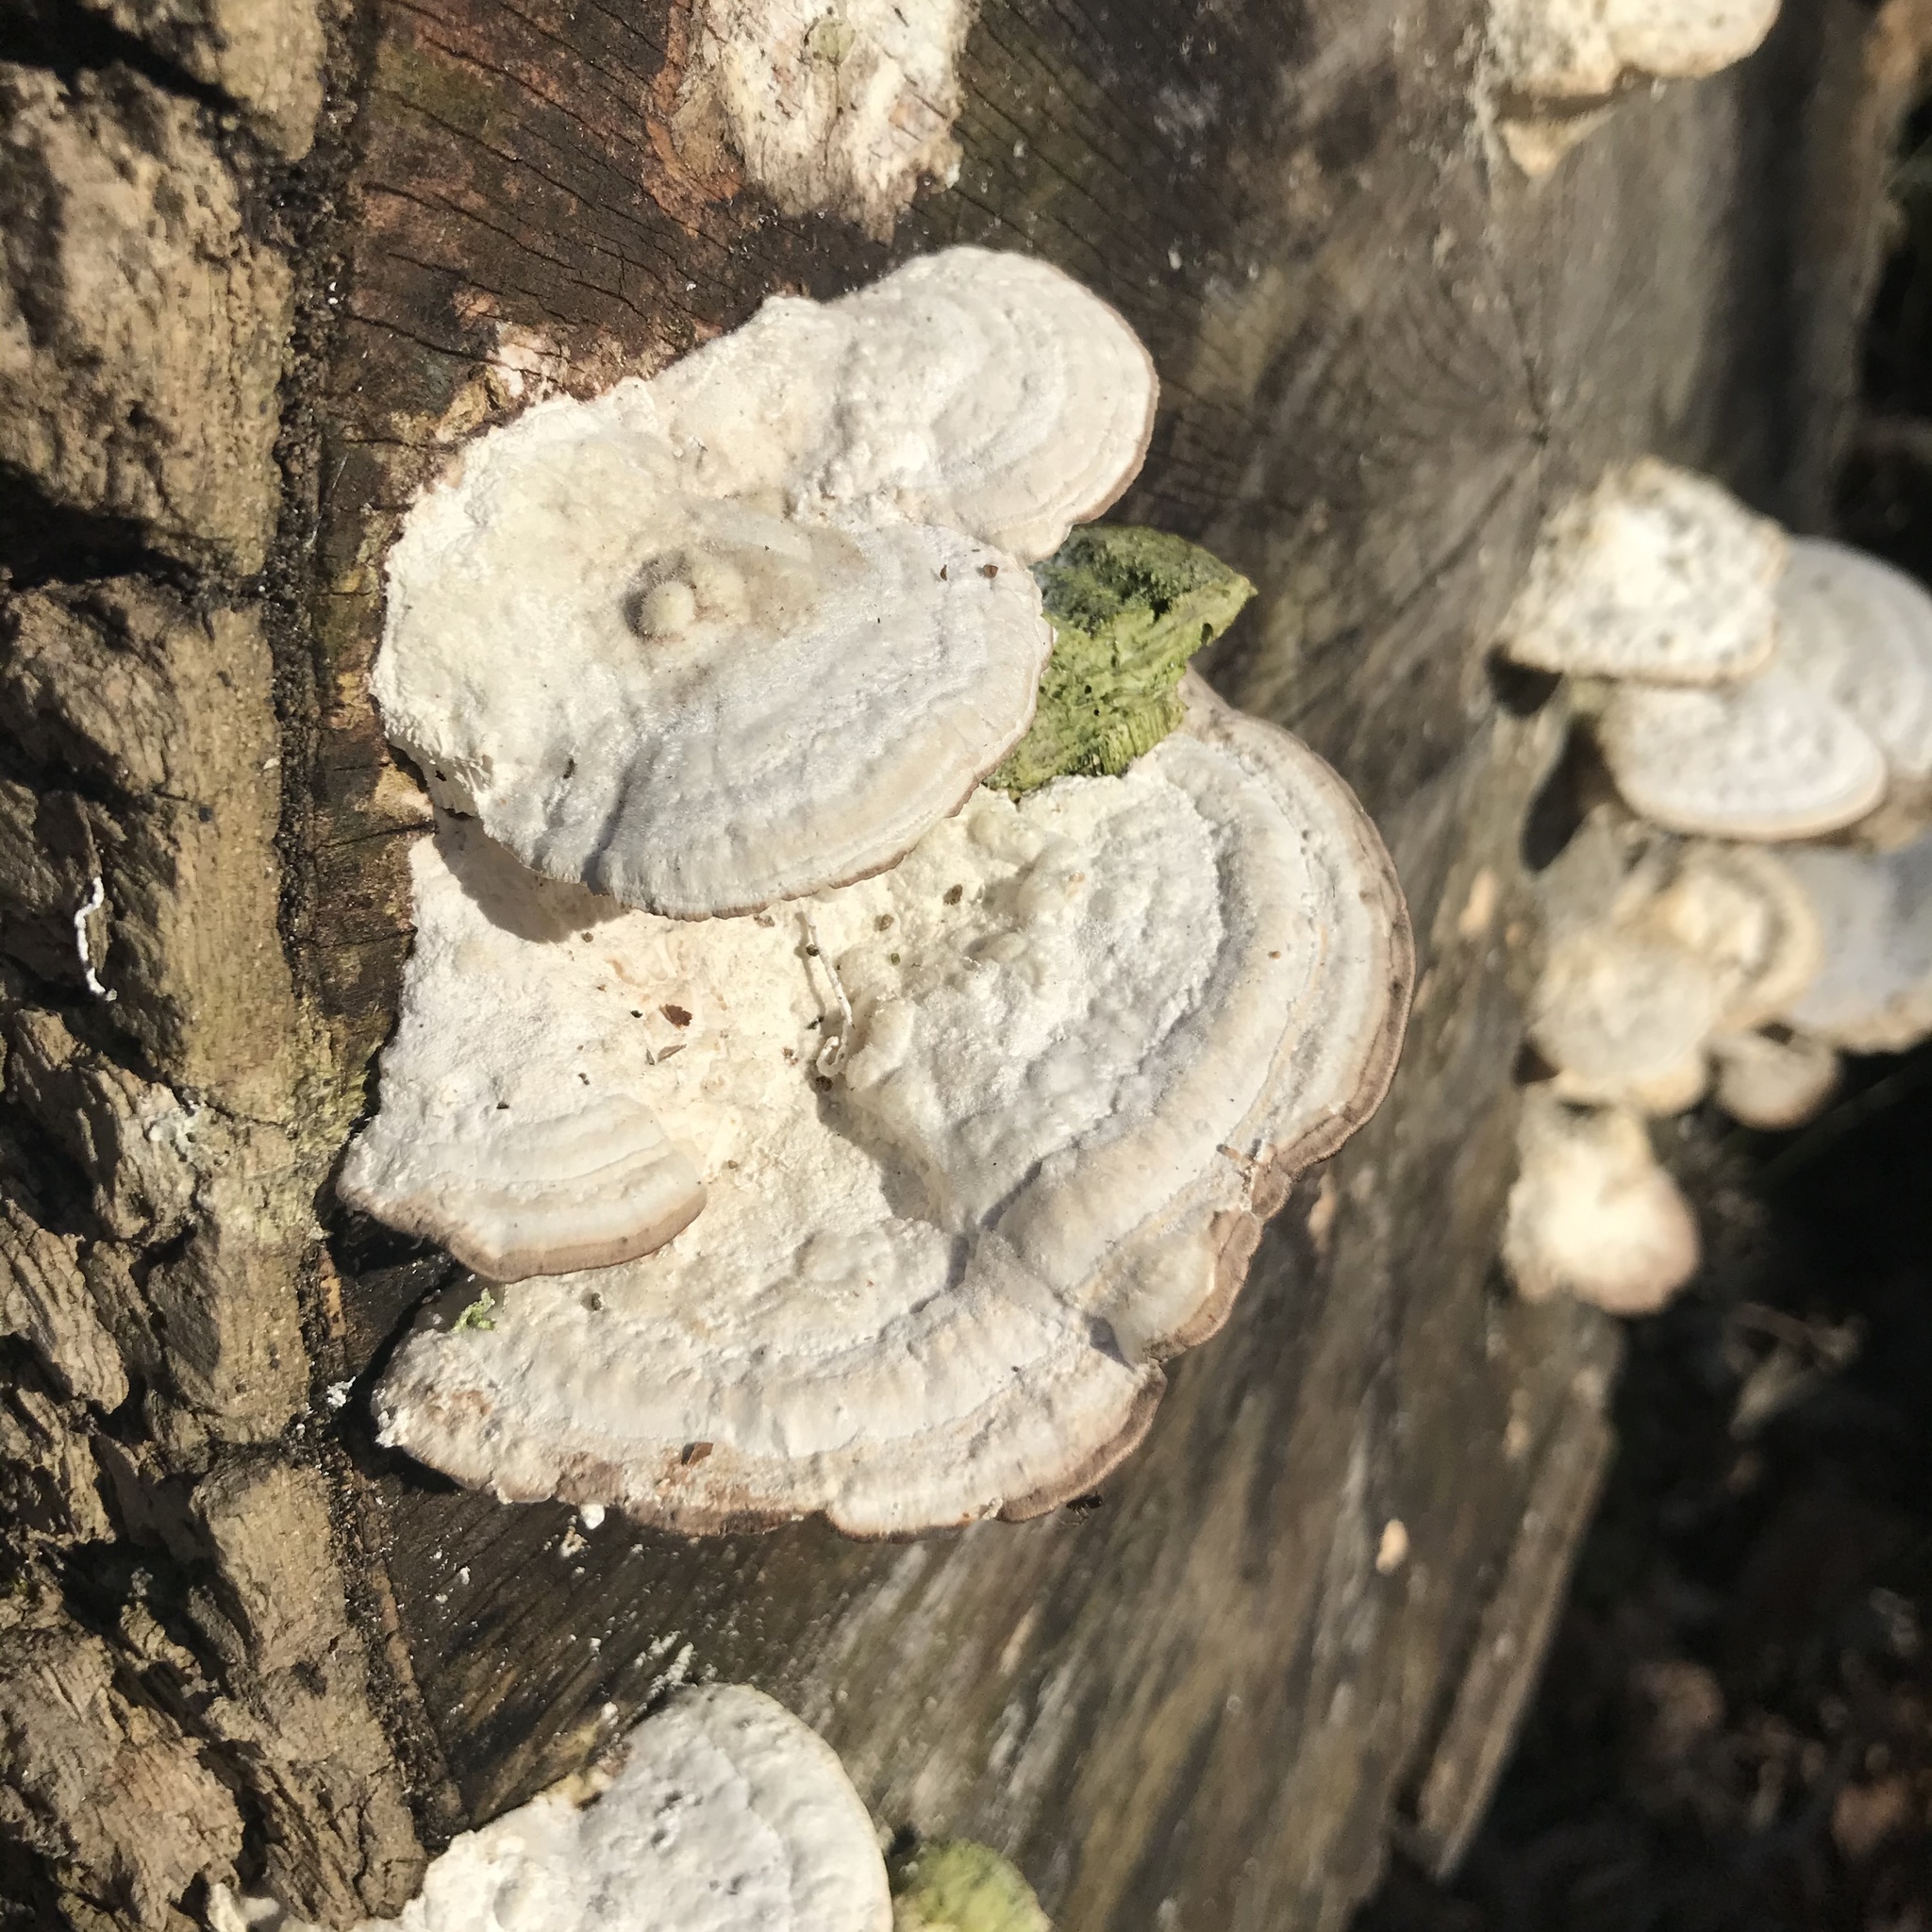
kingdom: Fungi
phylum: Basidiomycota
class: Agaricomycetes
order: Polyporales
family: Polyporaceae
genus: Trametes
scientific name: Trametes gibbosa
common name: Lumpy bracket
